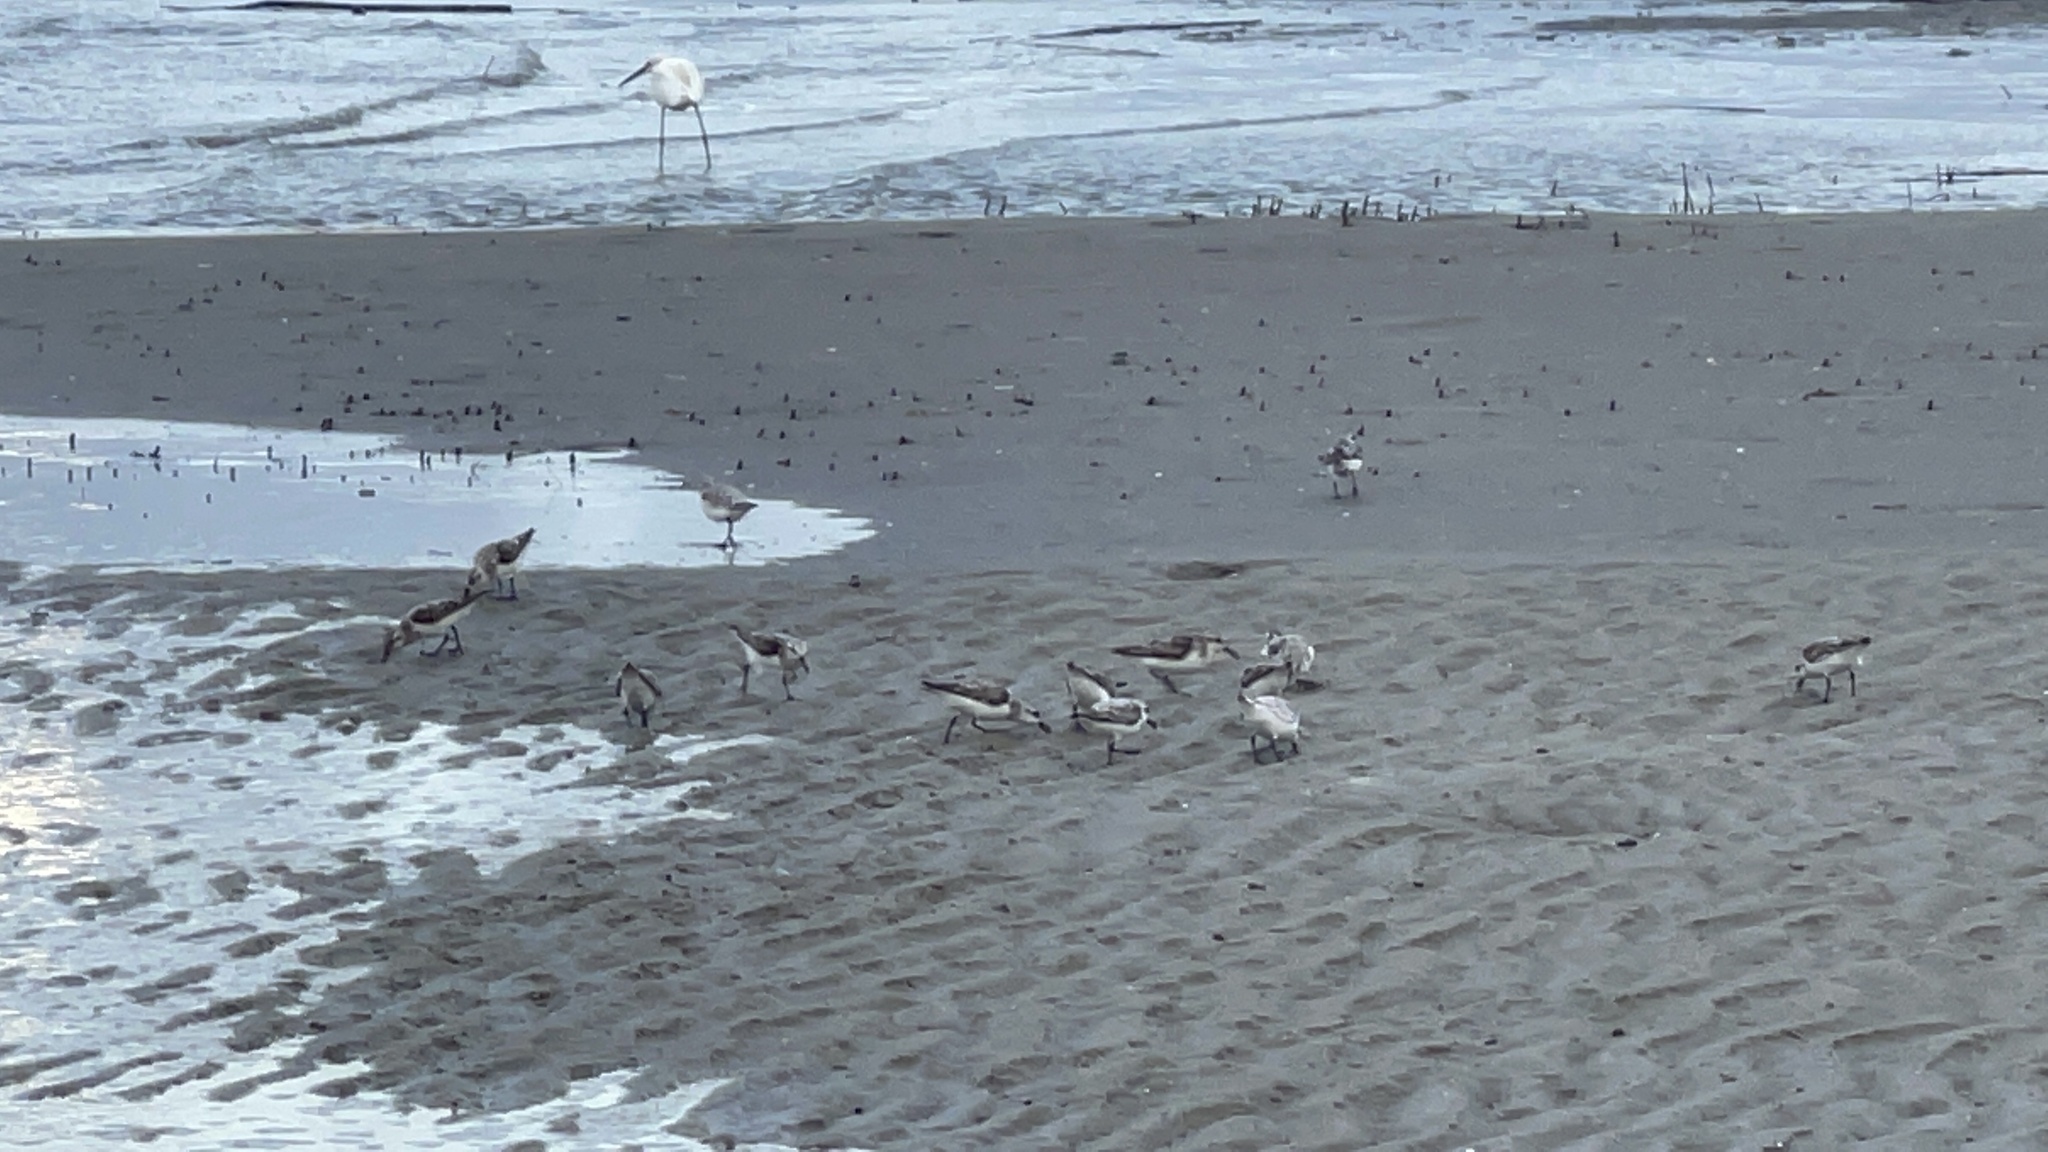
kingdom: Animalia
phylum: Chordata
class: Aves
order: Charadriiformes
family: Scolopacidae
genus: Calidris
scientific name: Calidris alba
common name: Sanderling
